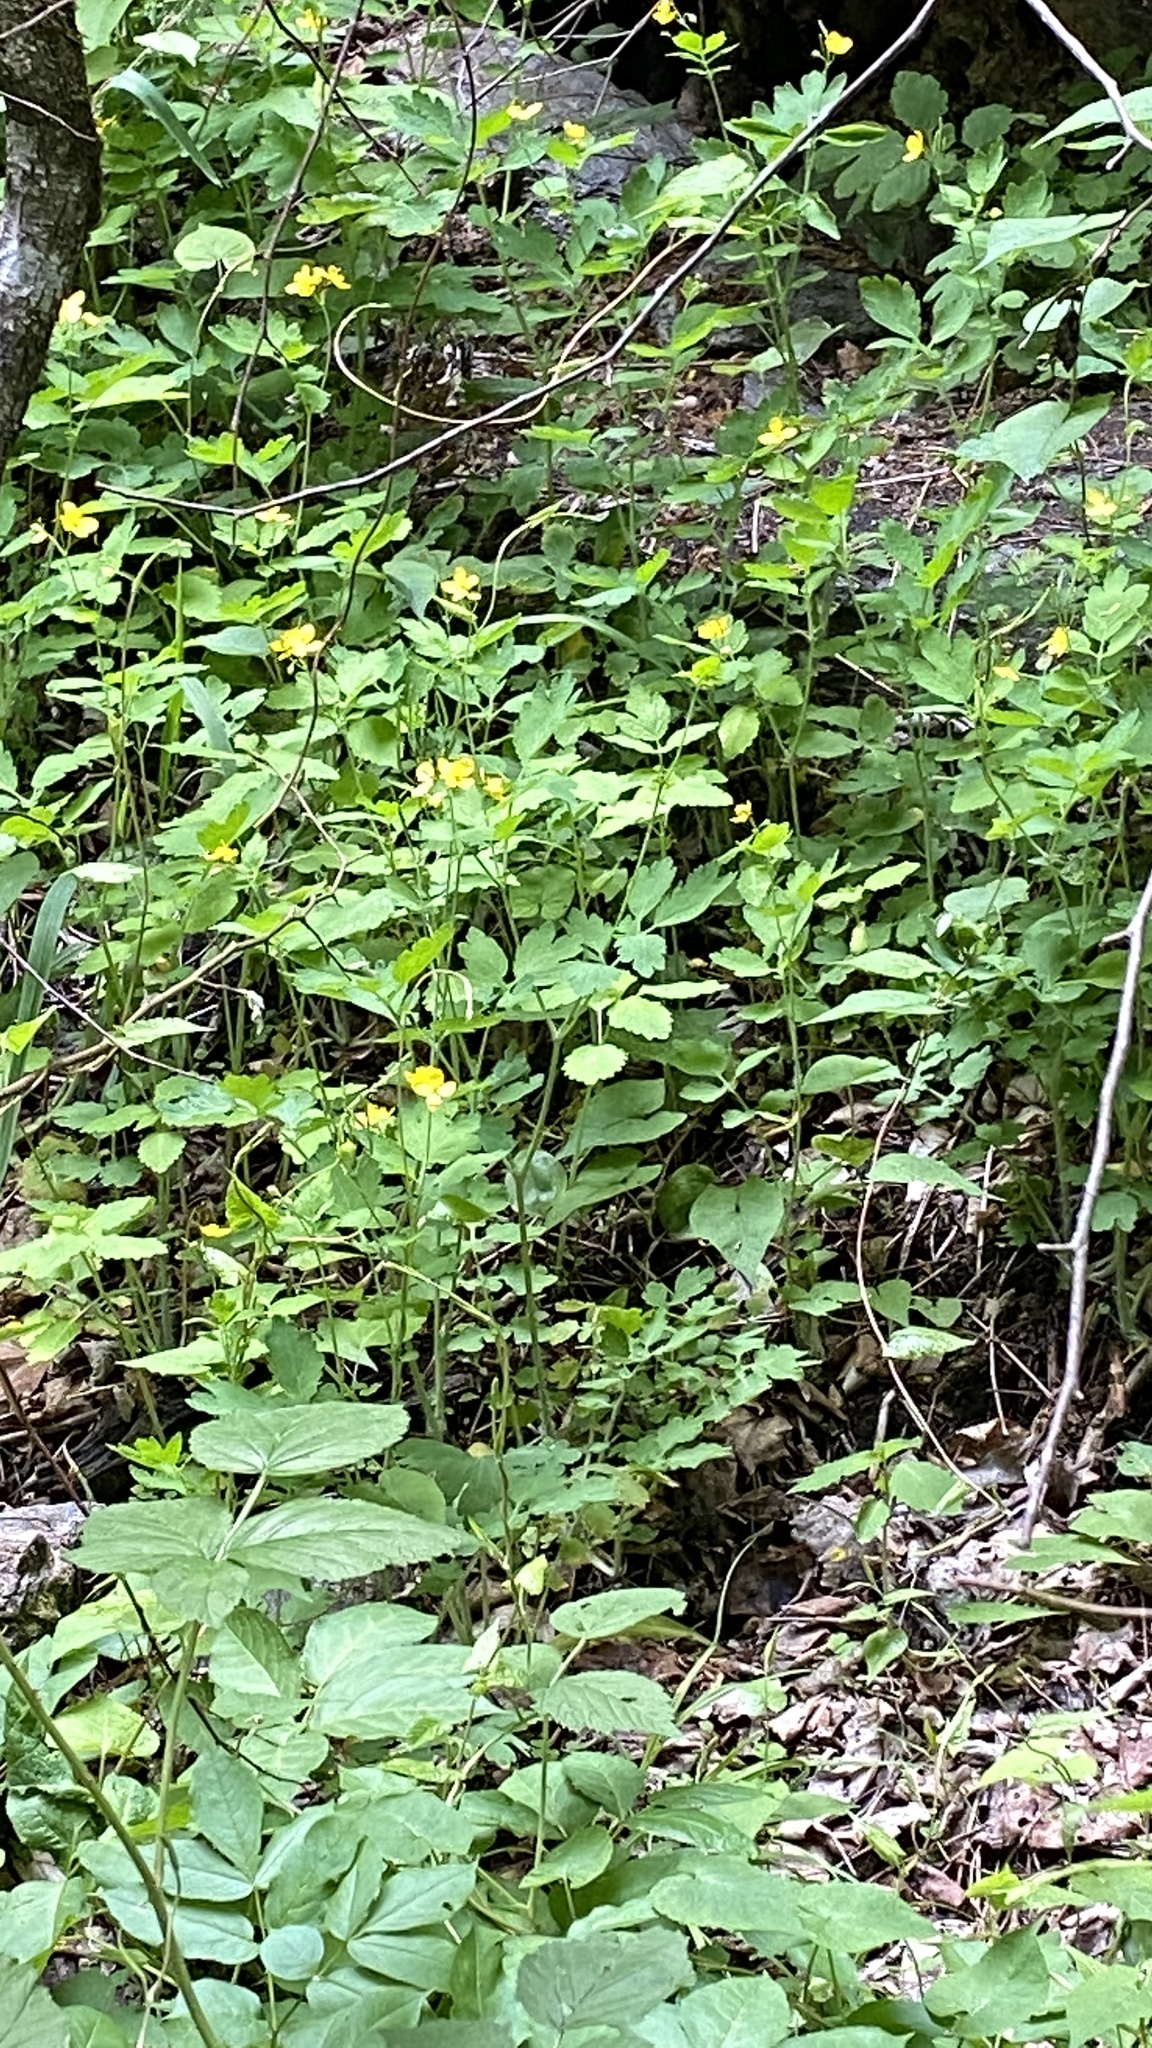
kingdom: Plantae
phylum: Tracheophyta
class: Magnoliopsida
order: Ranunculales
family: Papaveraceae
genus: Chelidonium
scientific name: Chelidonium majus
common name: Greater celandine
